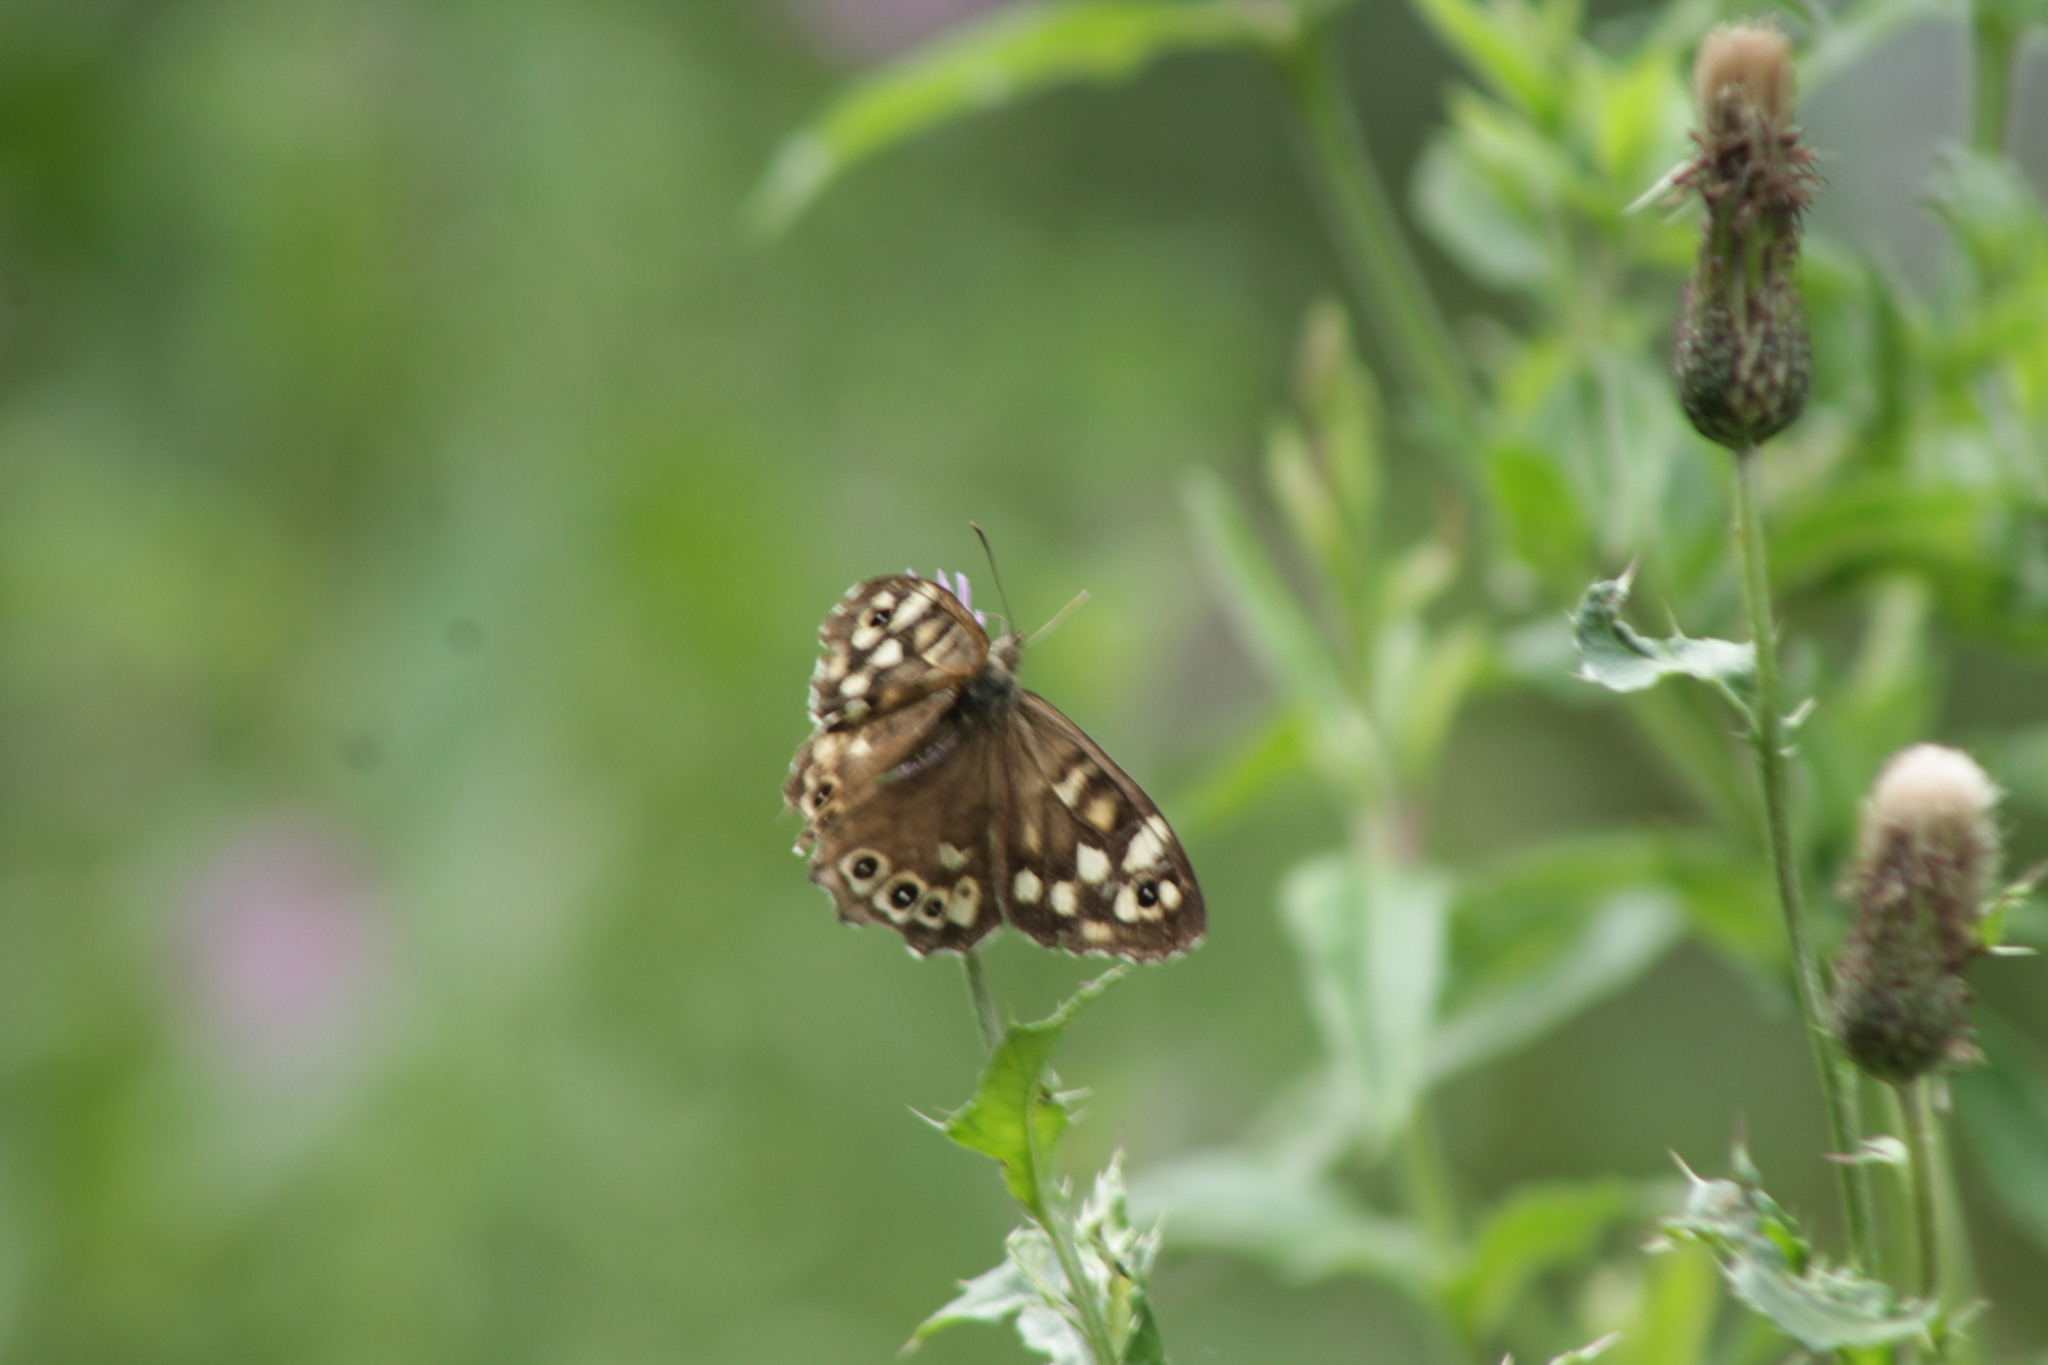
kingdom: Animalia
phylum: Arthropoda
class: Insecta
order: Lepidoptera
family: Nymphalidae
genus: Pararge
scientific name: Pararge aegeria
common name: Speckled wood
